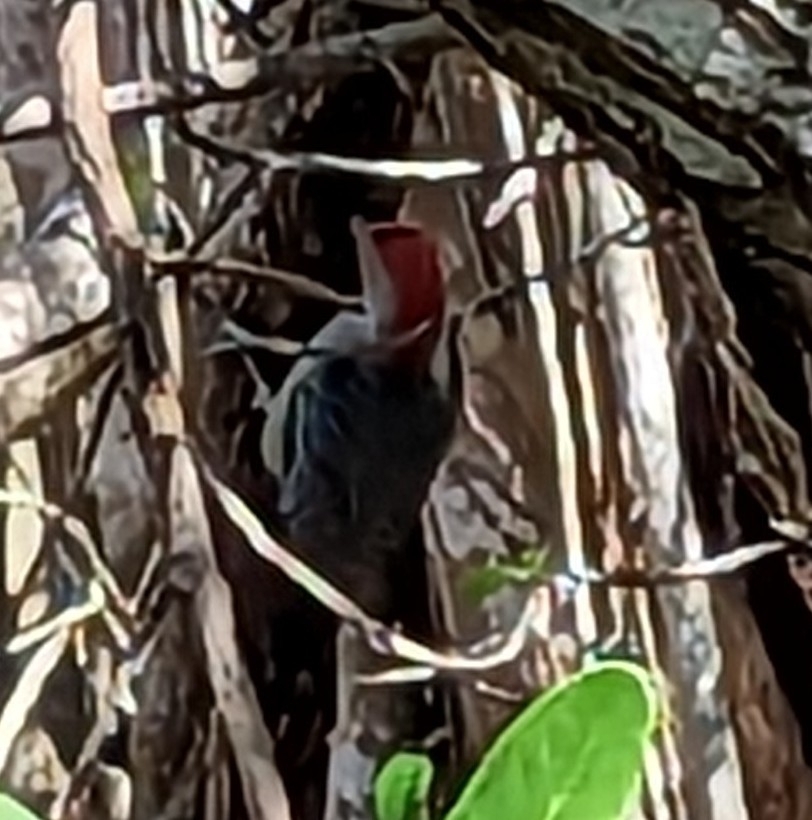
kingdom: Animalia
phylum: Chordata
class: Aves
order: Piciformes
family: Picidae
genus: Melanerpes
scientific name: Melanerpes carolinus
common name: Red-bellied woodpecker
